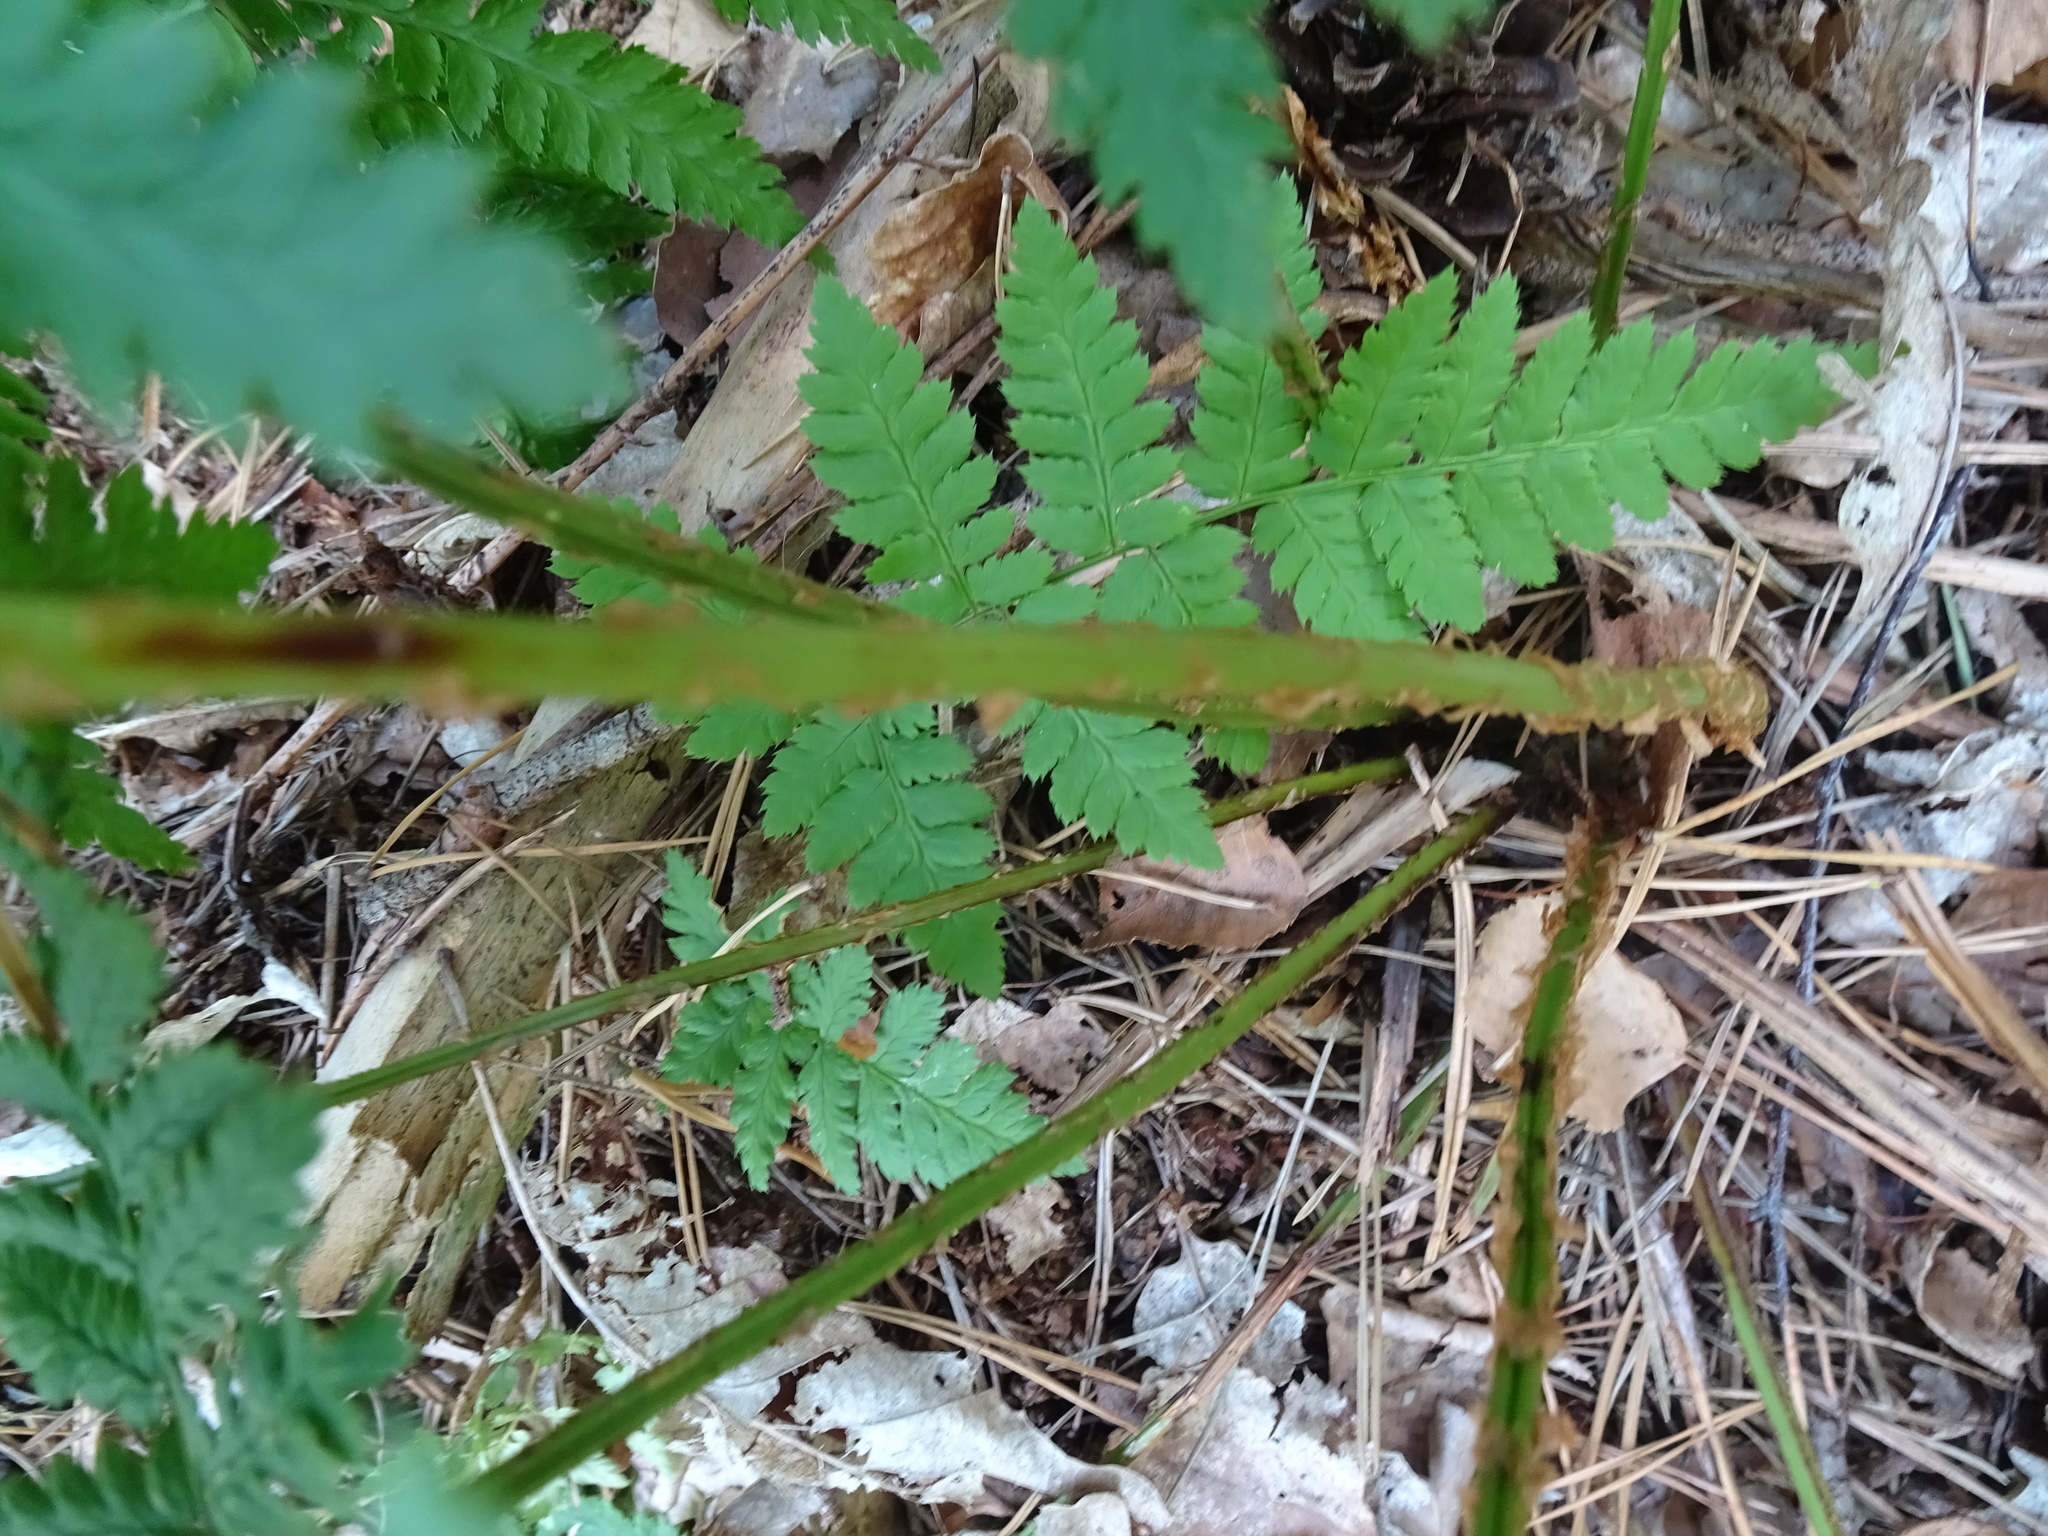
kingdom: Plantae
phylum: Tracheophyta
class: Polypodiopsida
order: Polypodiales
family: Dryopteridaceae
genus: Dryopteris
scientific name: Dryopteris carthusiana
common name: Narrow buckler-fern
